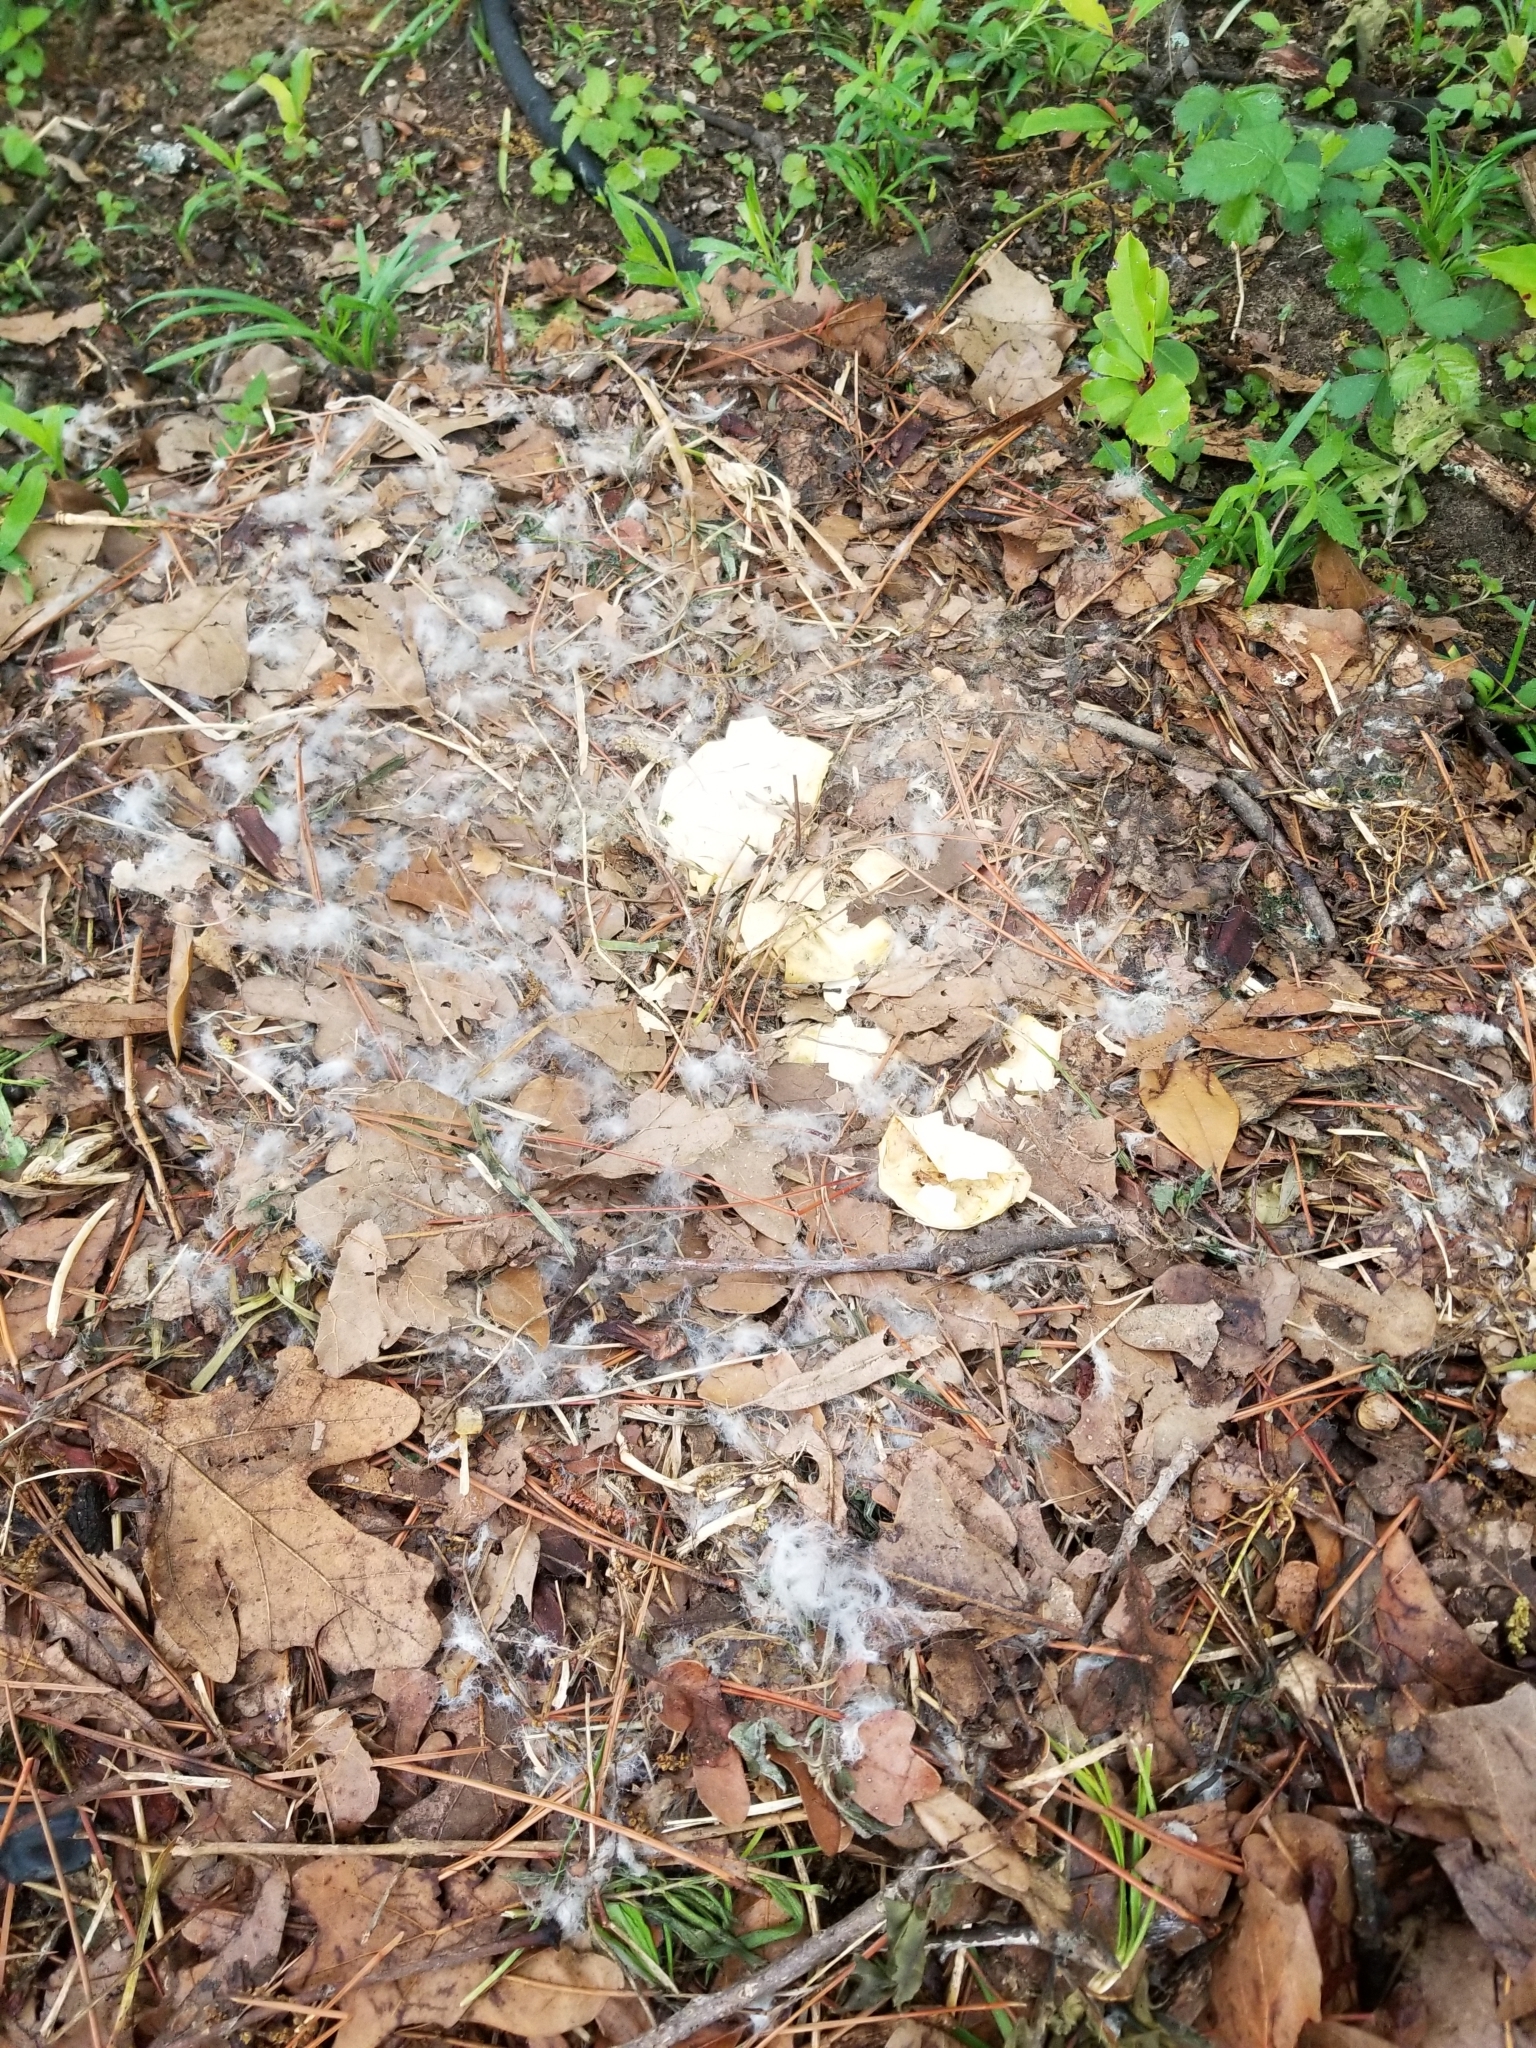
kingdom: Animalia
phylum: Chordata
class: Aves
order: Anseriformes
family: Anatidae
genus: Branta
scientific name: Branta canadensis
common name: Canada goose
